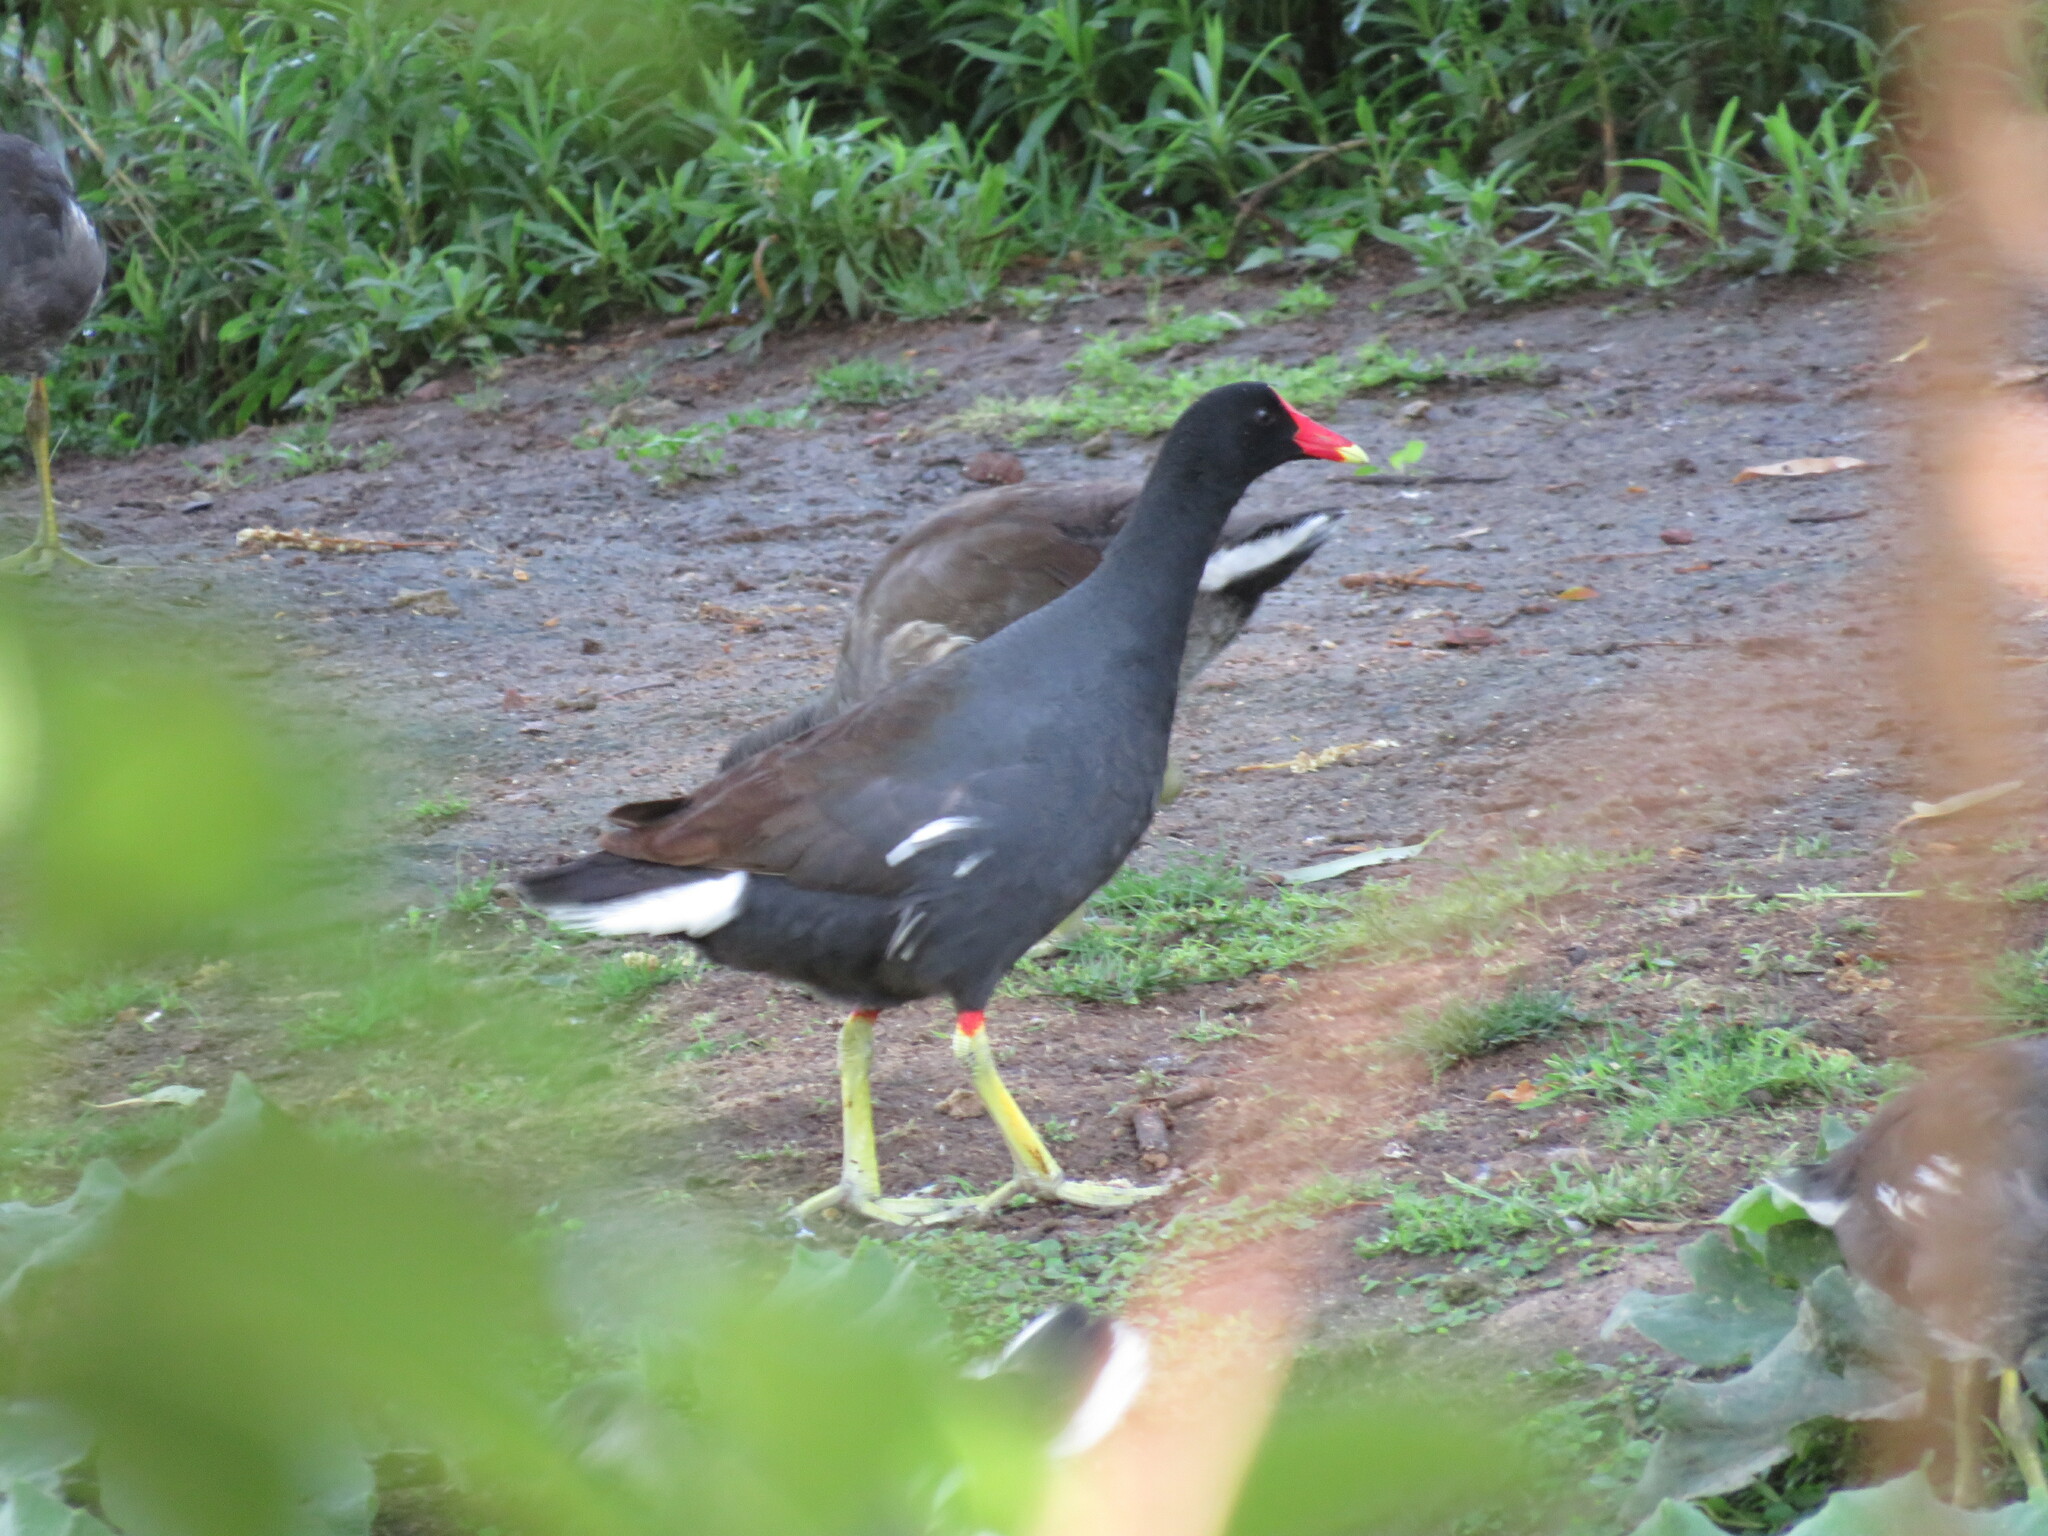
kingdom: Animalia
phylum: Chordata
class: Aves
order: Gruiformes
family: Rallidae
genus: Gallinula
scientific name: Gallinula chloropus
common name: Common moorhen
